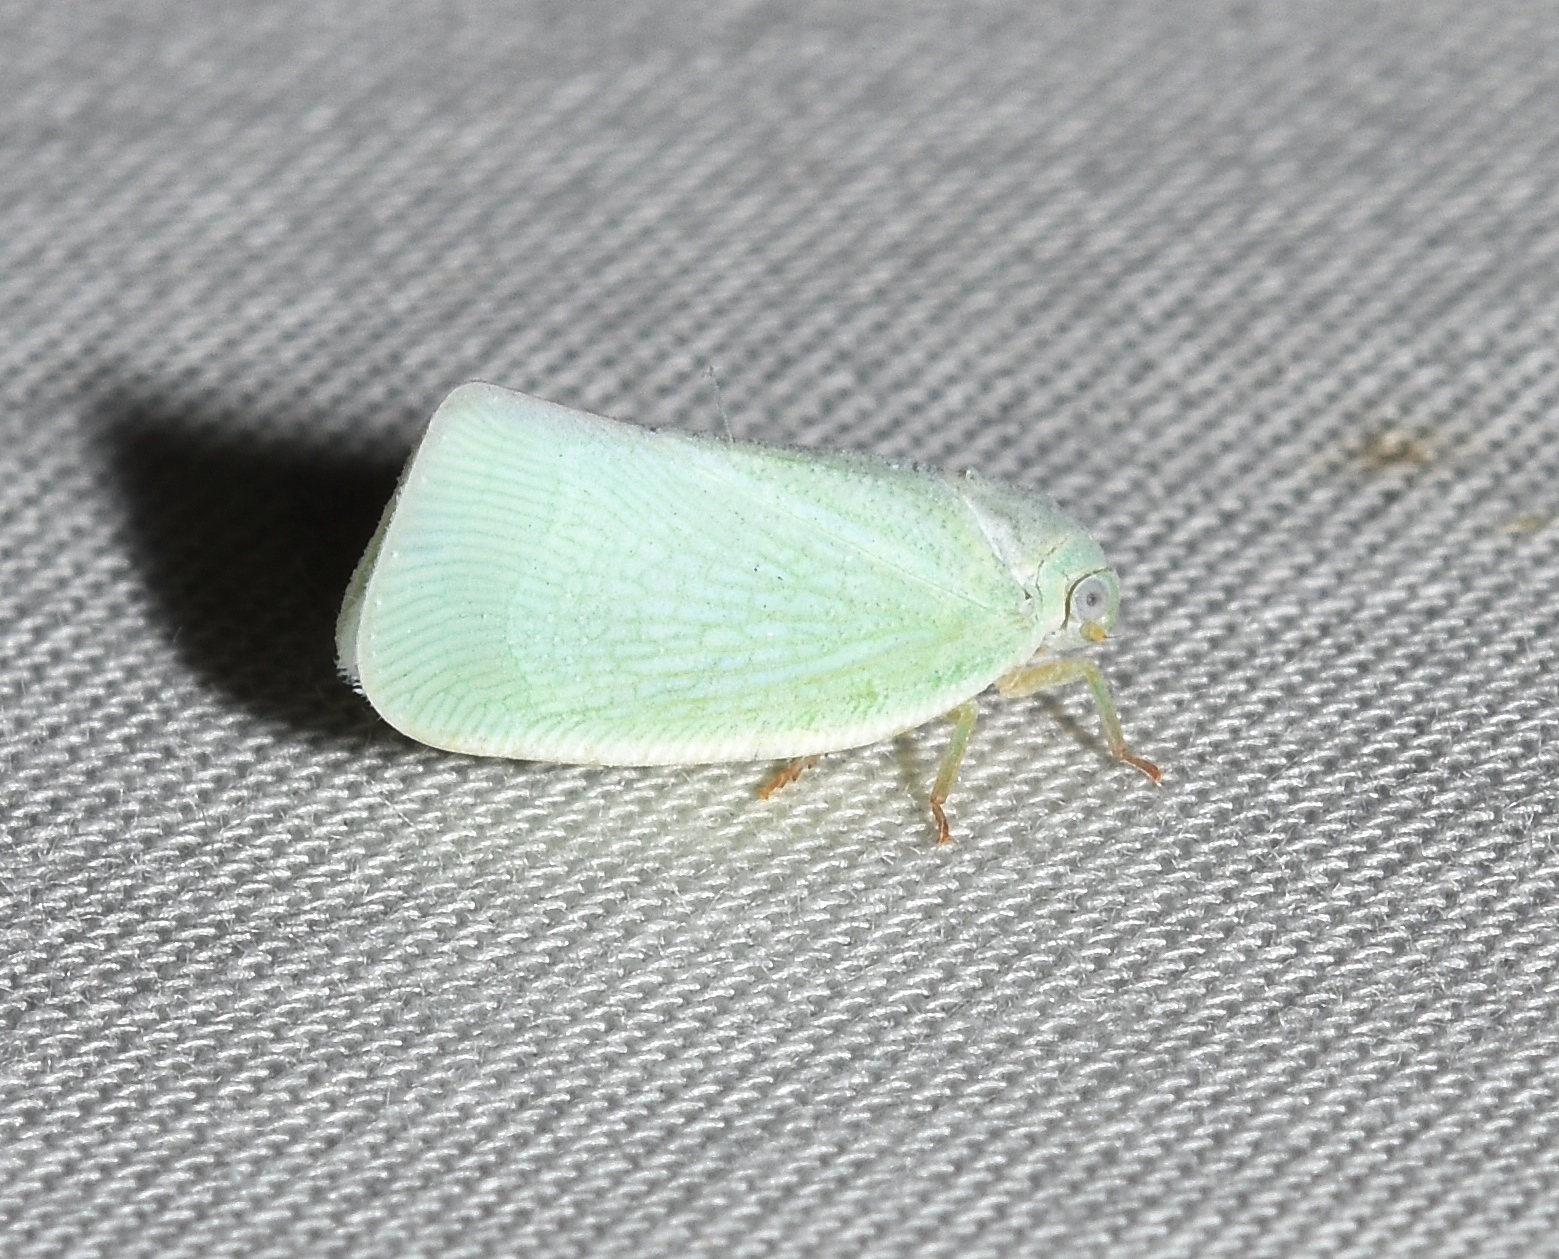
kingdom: Animalia
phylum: Arthropoda
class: Insecta
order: Hemiptera
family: Flatidae
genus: Flatormenis
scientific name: Flatormenis proxima
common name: Northern flatid planthopper
